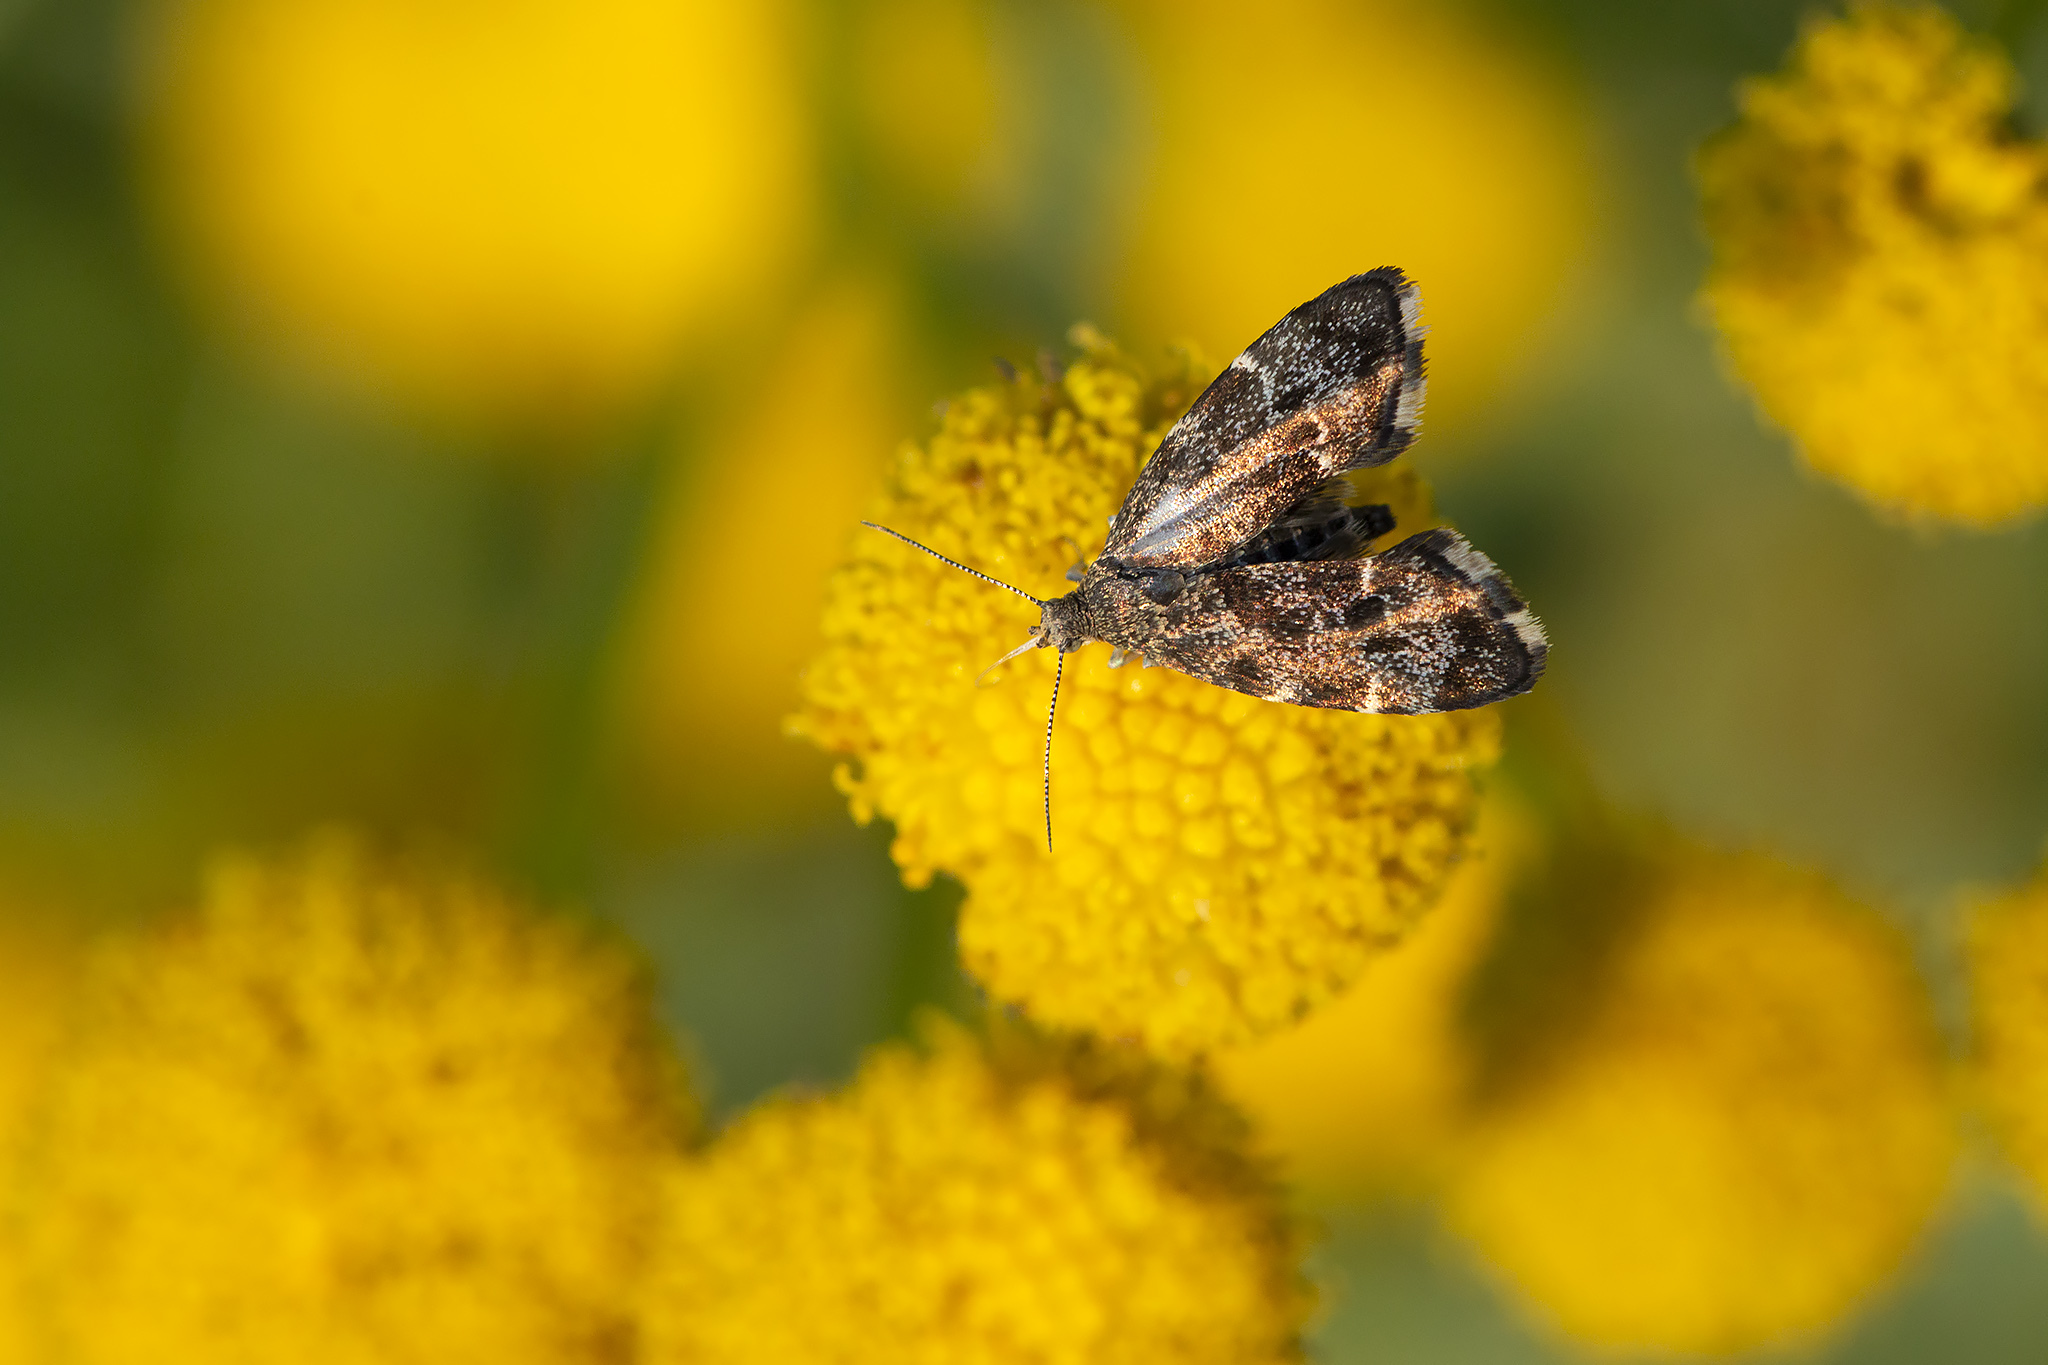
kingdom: Animalia
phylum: Arthropoda
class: Insecta
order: Lepidoptera
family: Choreutidae
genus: Anthophila
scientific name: Anthophila fabriciana
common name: Nettle-tap
